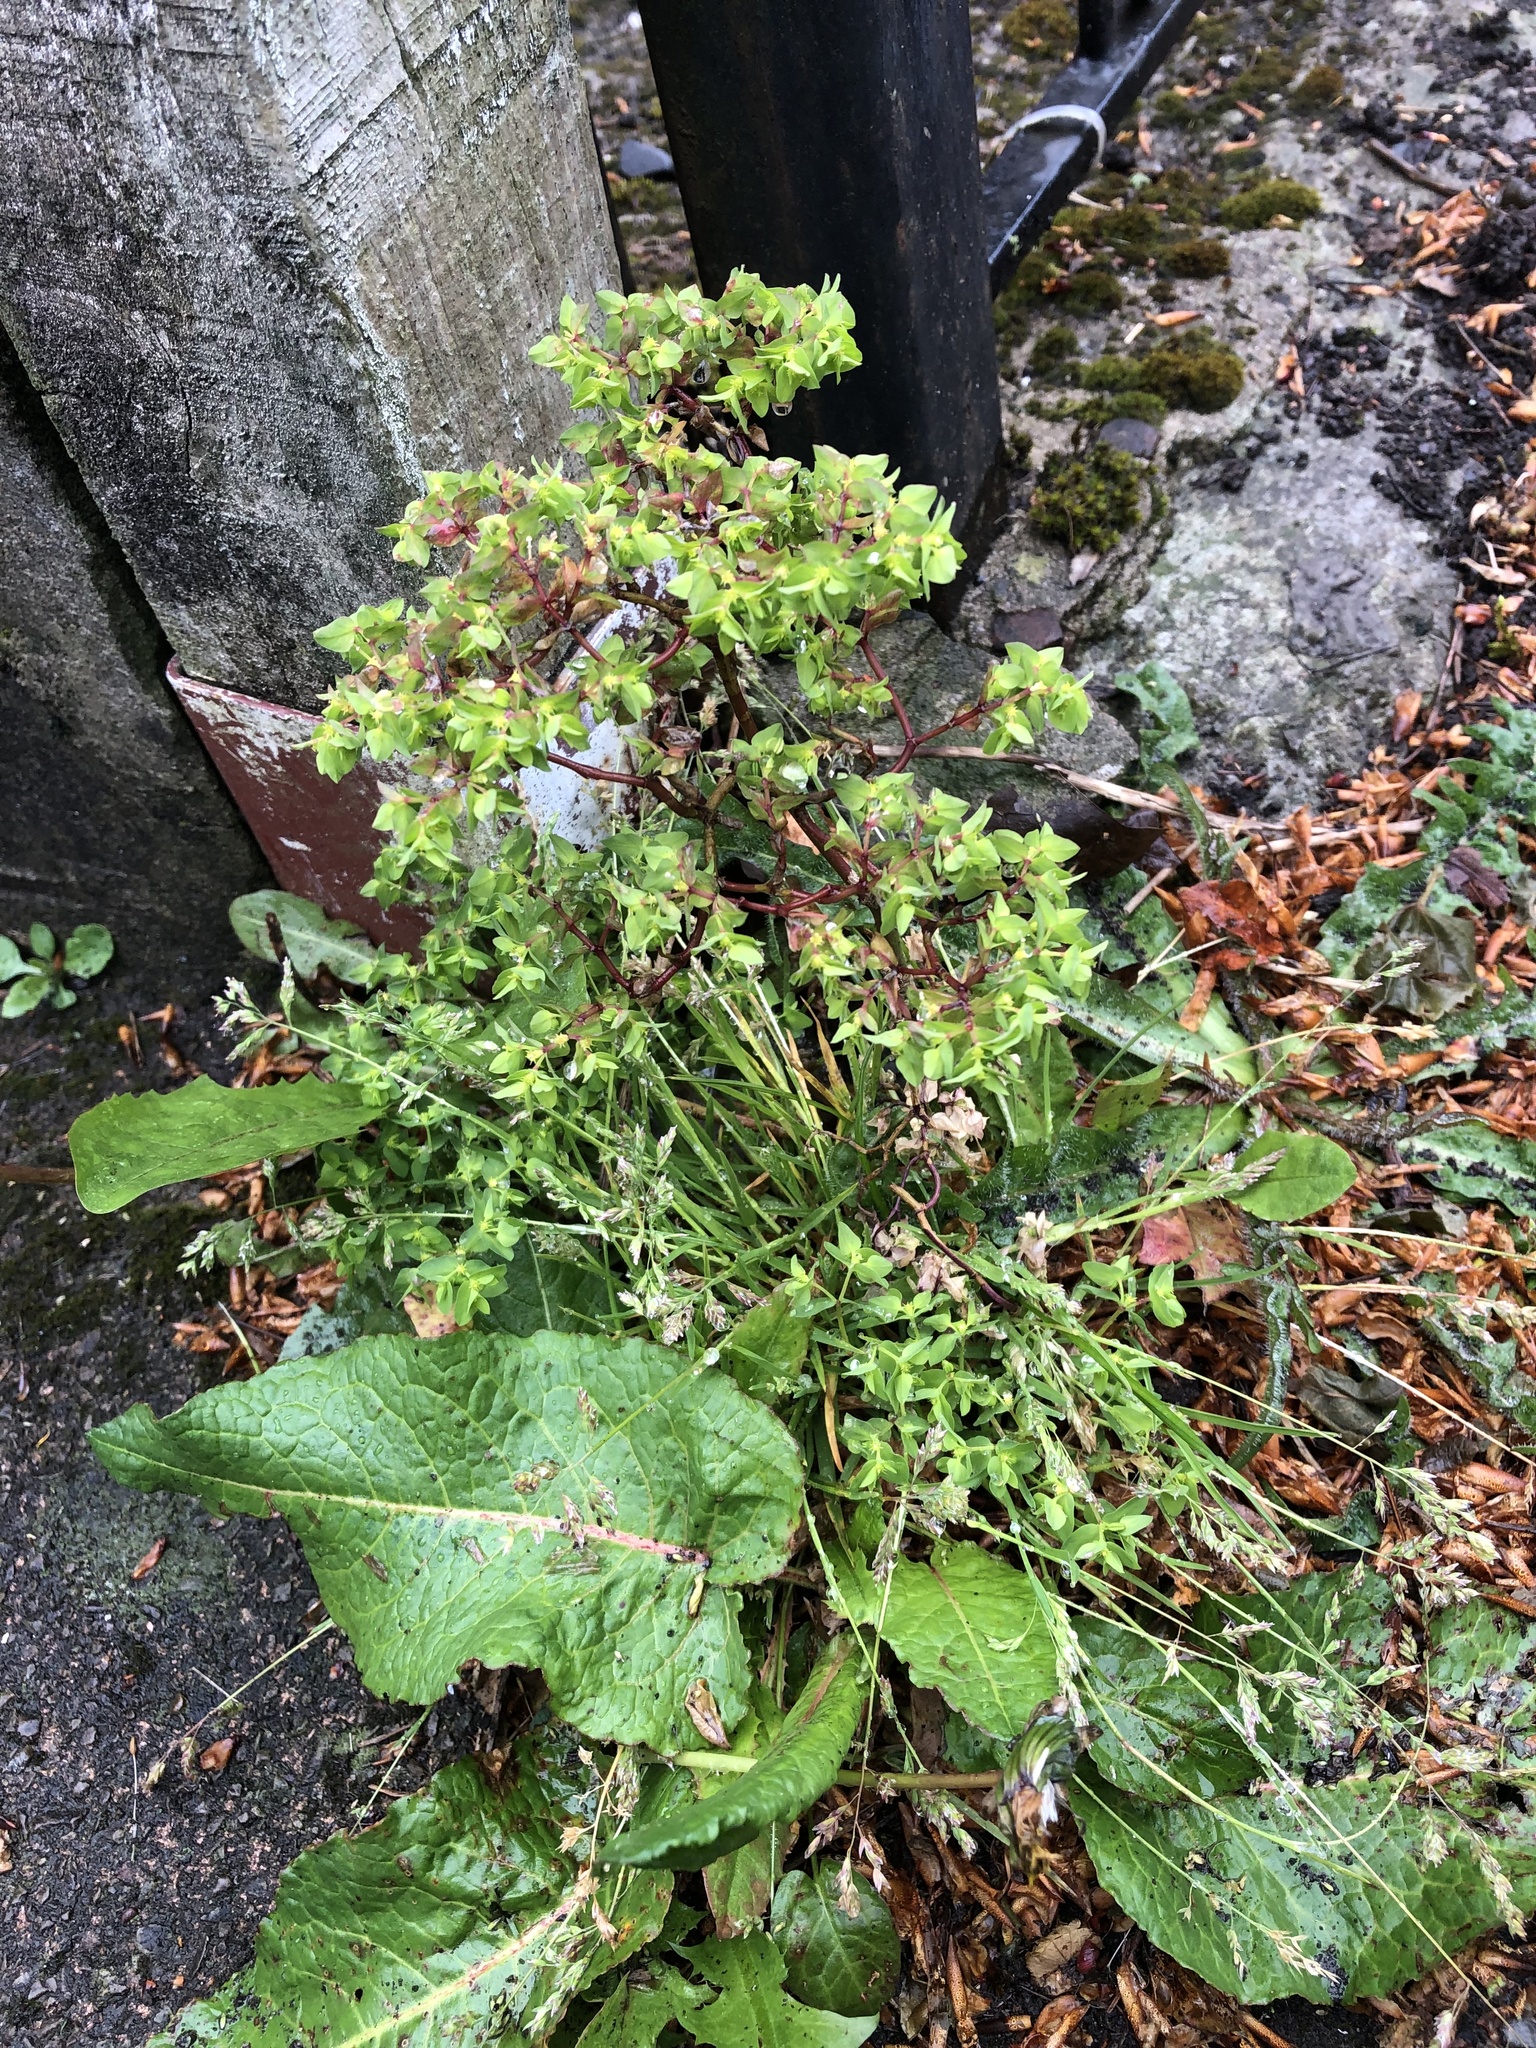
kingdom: Plantae
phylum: Tracheophyta
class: Magnoliopsida
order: Malpighiales
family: Euphorbiaceae
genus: Euphorbia
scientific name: Euphorbia peplus
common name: Petty spurge
